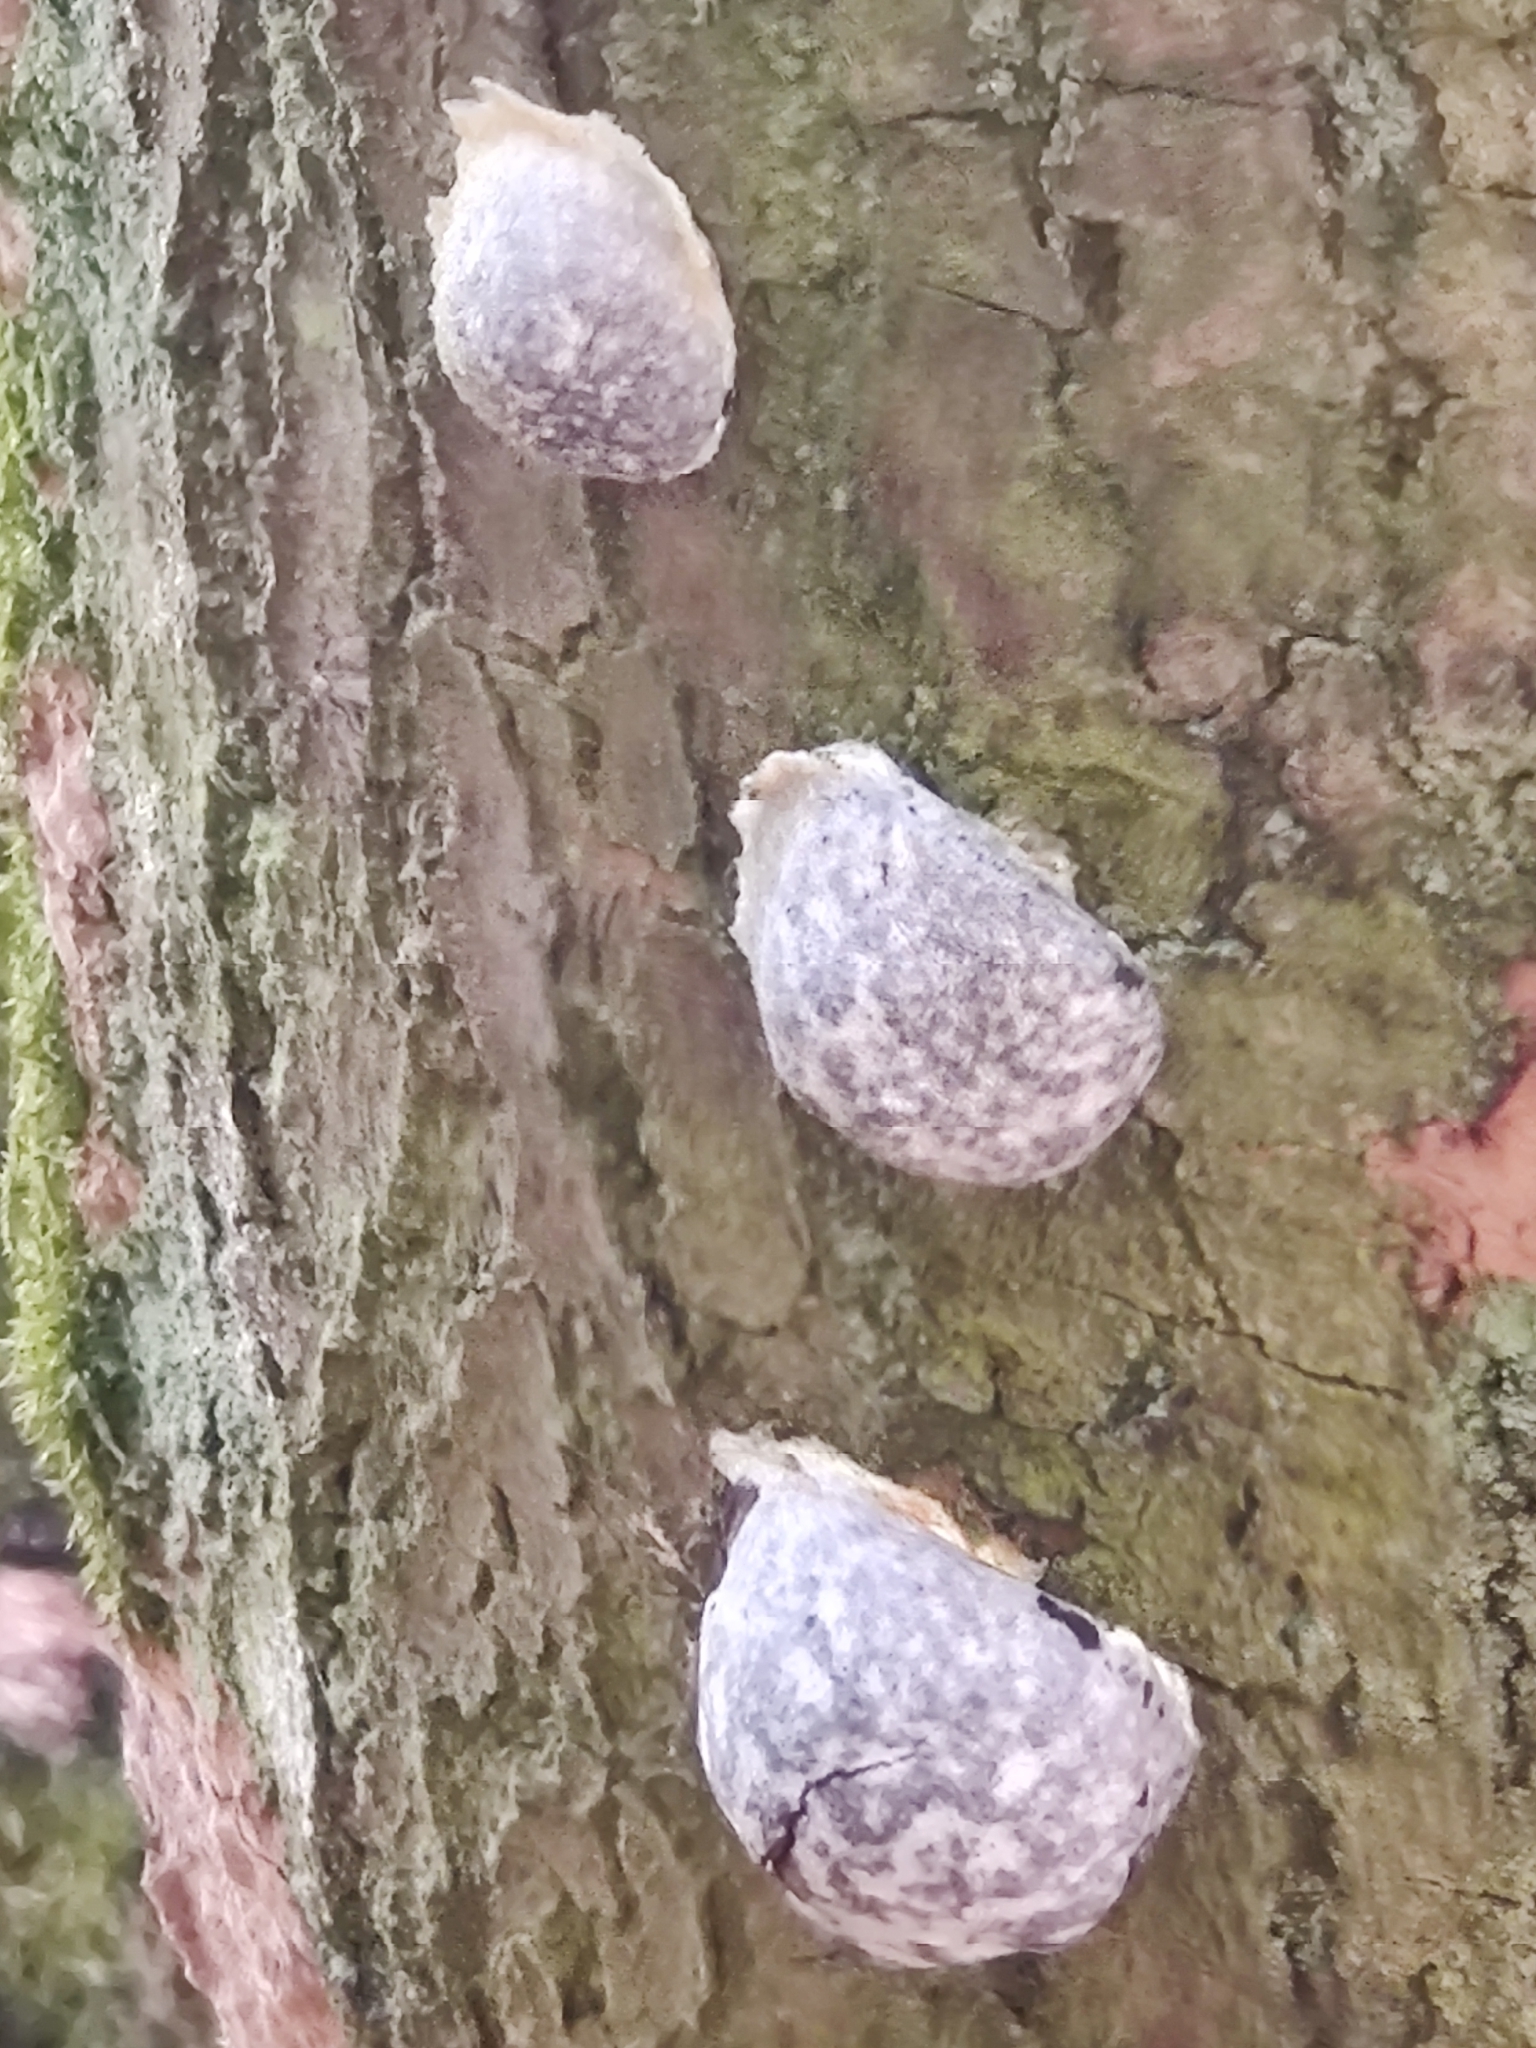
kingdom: Protozoa
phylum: Mycetozoa
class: Myxomycetes
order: Cribrariales
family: Tubiferaceae
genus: Reticularia
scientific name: Reticularia lycoperdon
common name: False puffball
